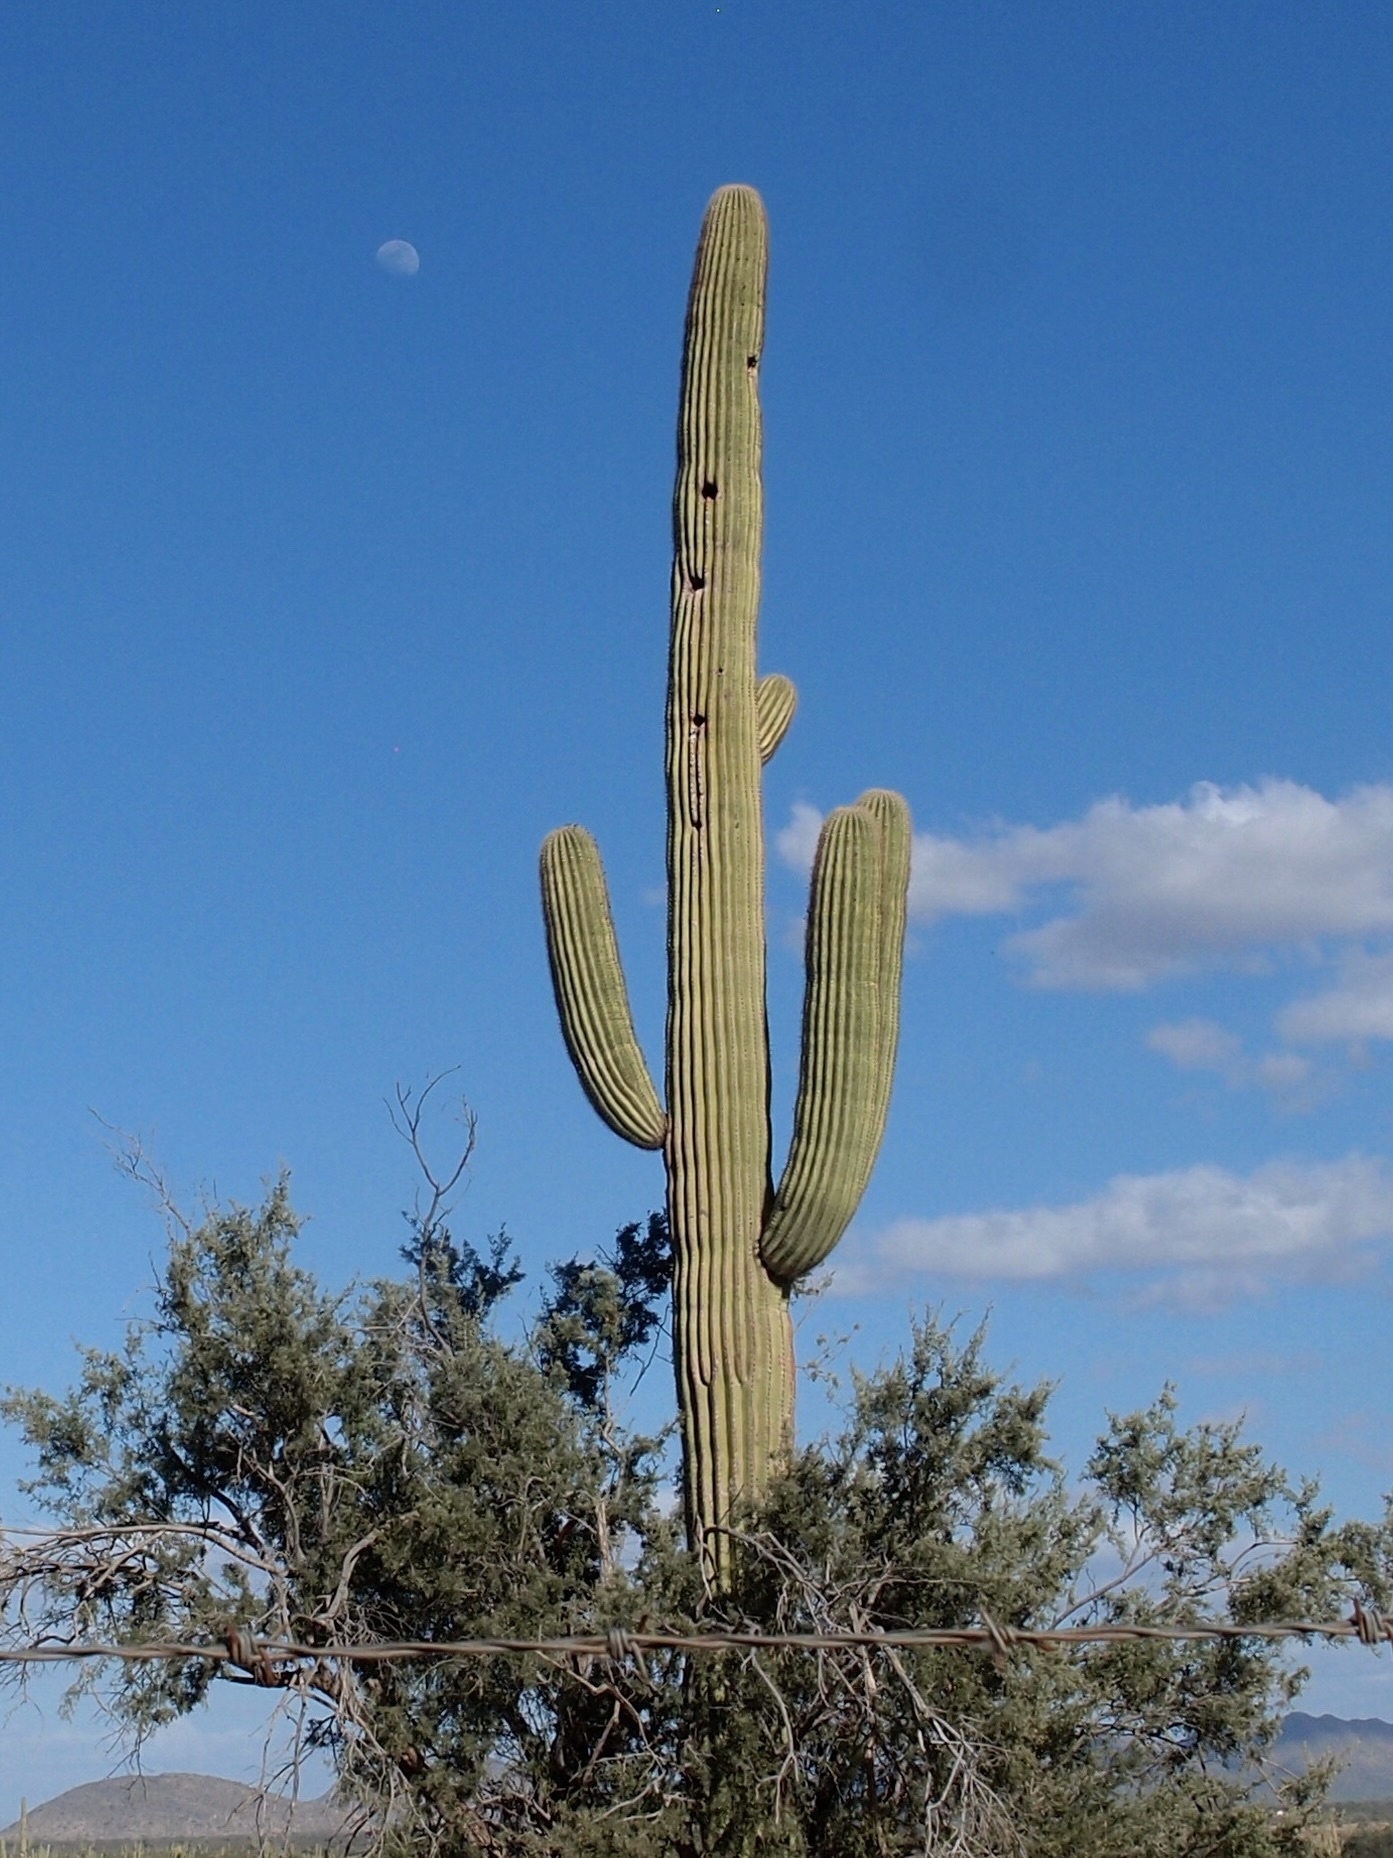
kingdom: Plantae
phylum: Tracheophyta
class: Magnoliopsida
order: Caryophyllales
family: Cactaceae
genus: Carnegiea
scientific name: Carnegiea gigantea
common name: Saguaro
